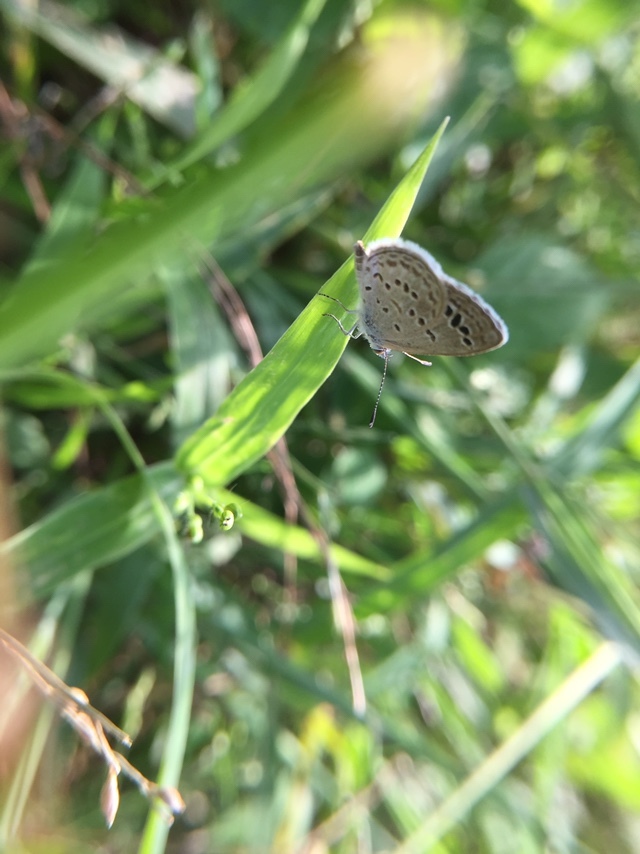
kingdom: Animalia
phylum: Arthropoda
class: Insecta
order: Lepidoptera
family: Lycaenidae
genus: Zizina
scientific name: Zizina otis
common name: Lesser grass blue
